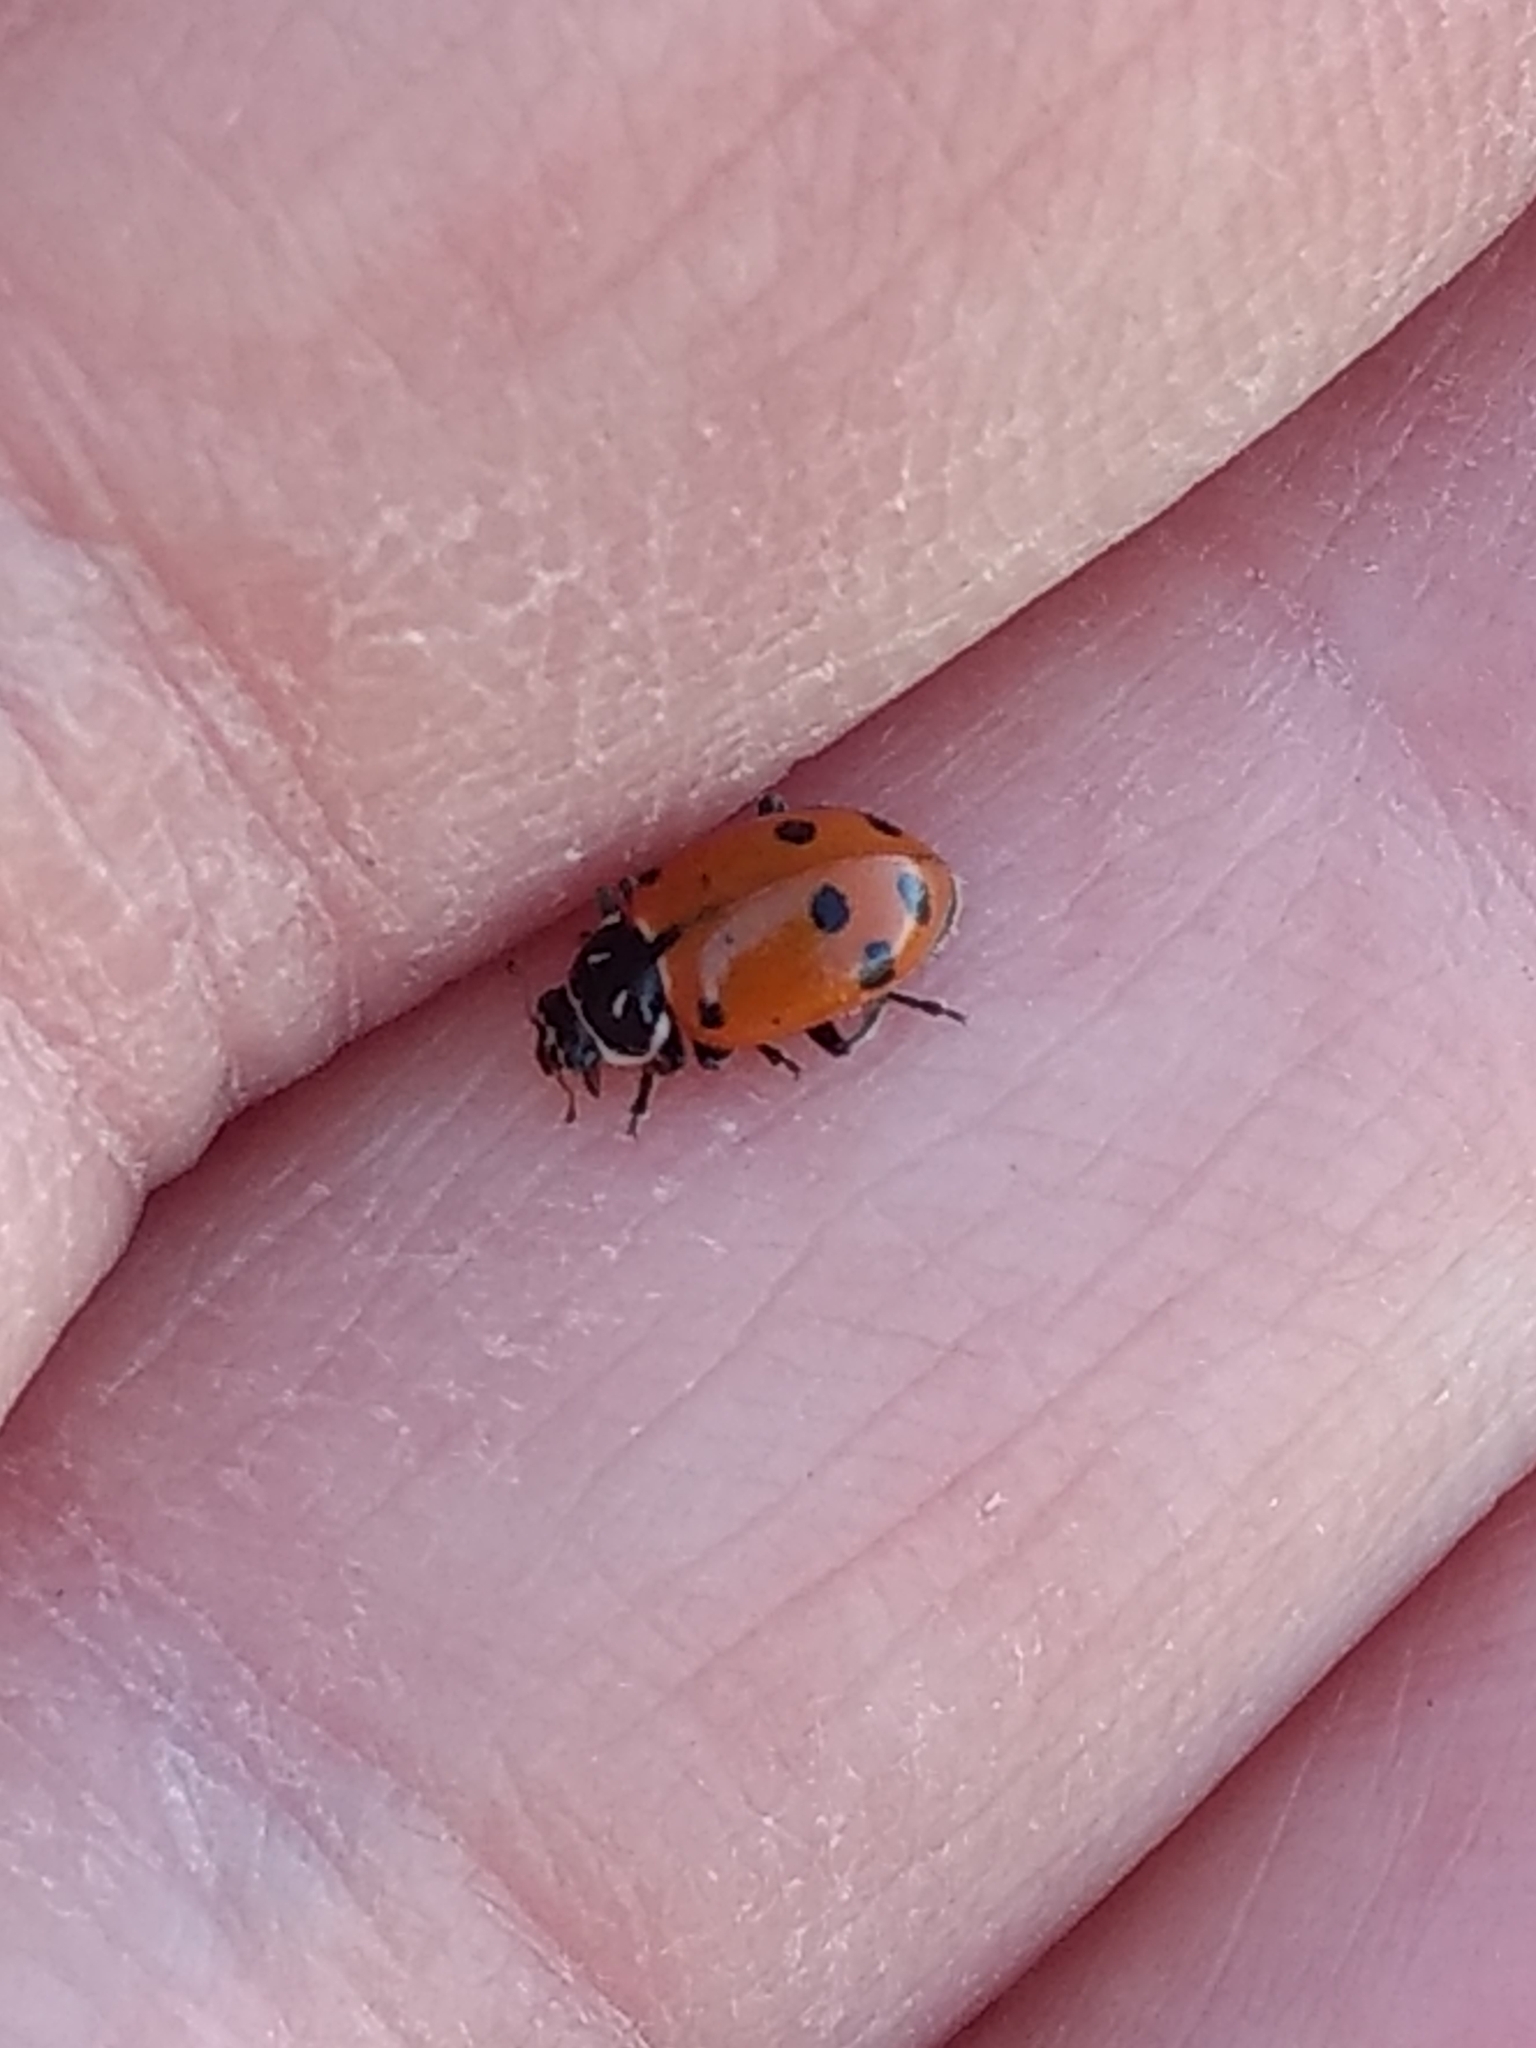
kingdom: Animalia
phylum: Arthropoda
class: Insecta
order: Coleoptera
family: Coccinellidae
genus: Hippodamia
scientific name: Hippodamia convergens
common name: Convergent lady beetle
